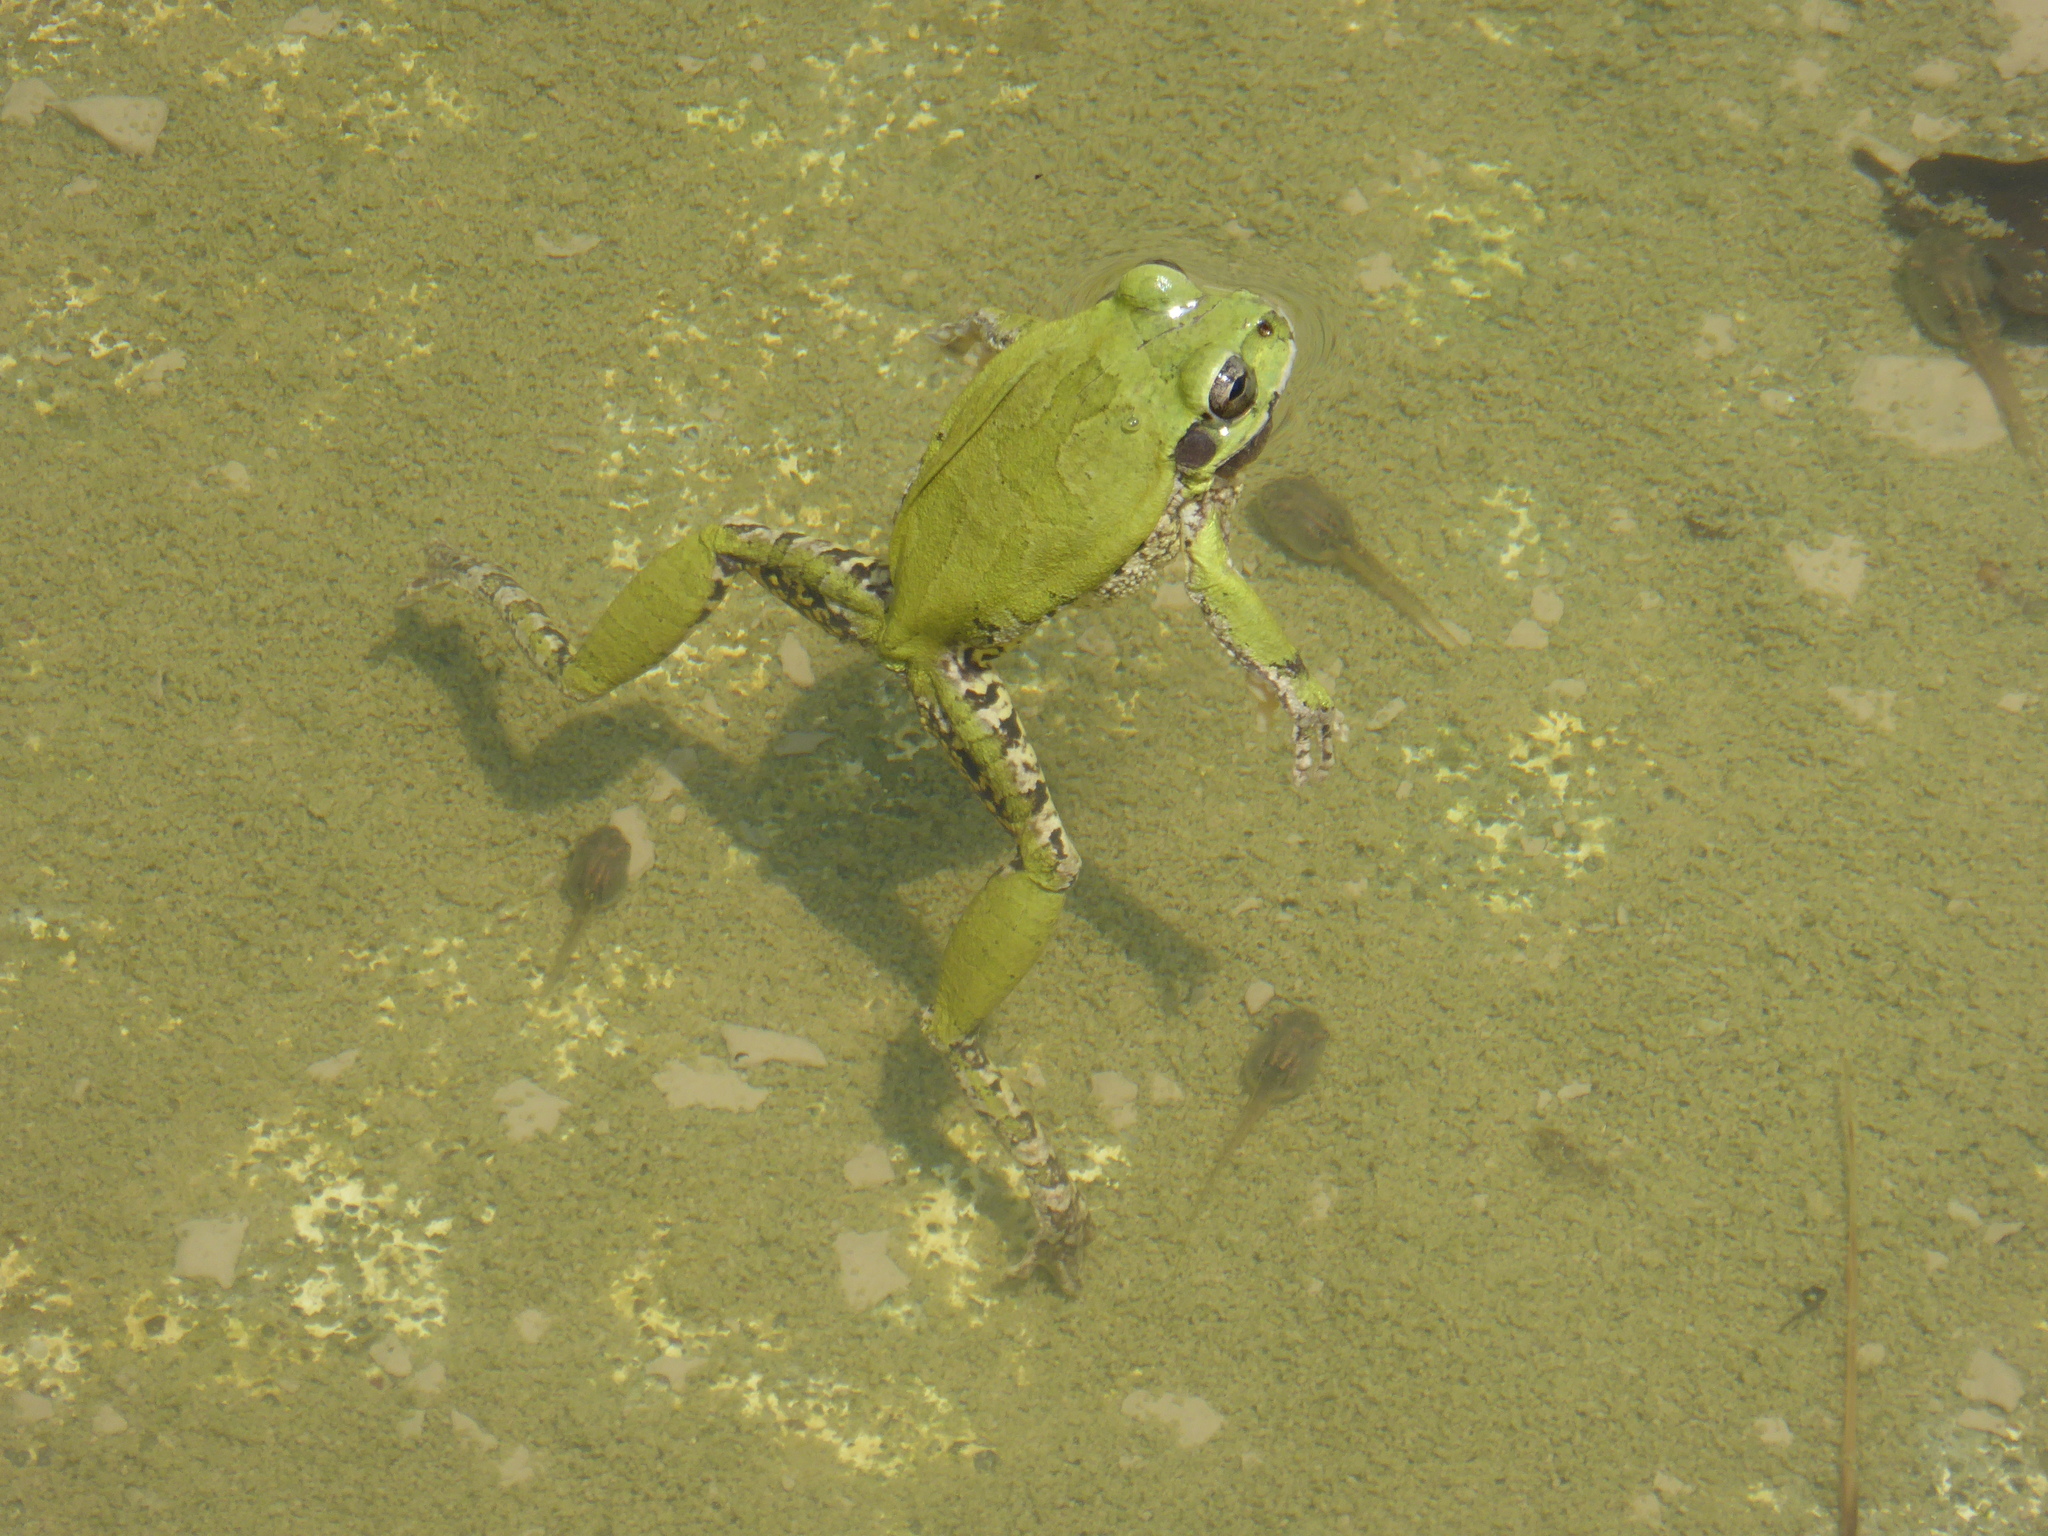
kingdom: Animalia
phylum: Chordata
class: Amphibia
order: Anura
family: Hylidae
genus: Smilisca
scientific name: Smilisca baudinii
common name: Mexican smilisca
